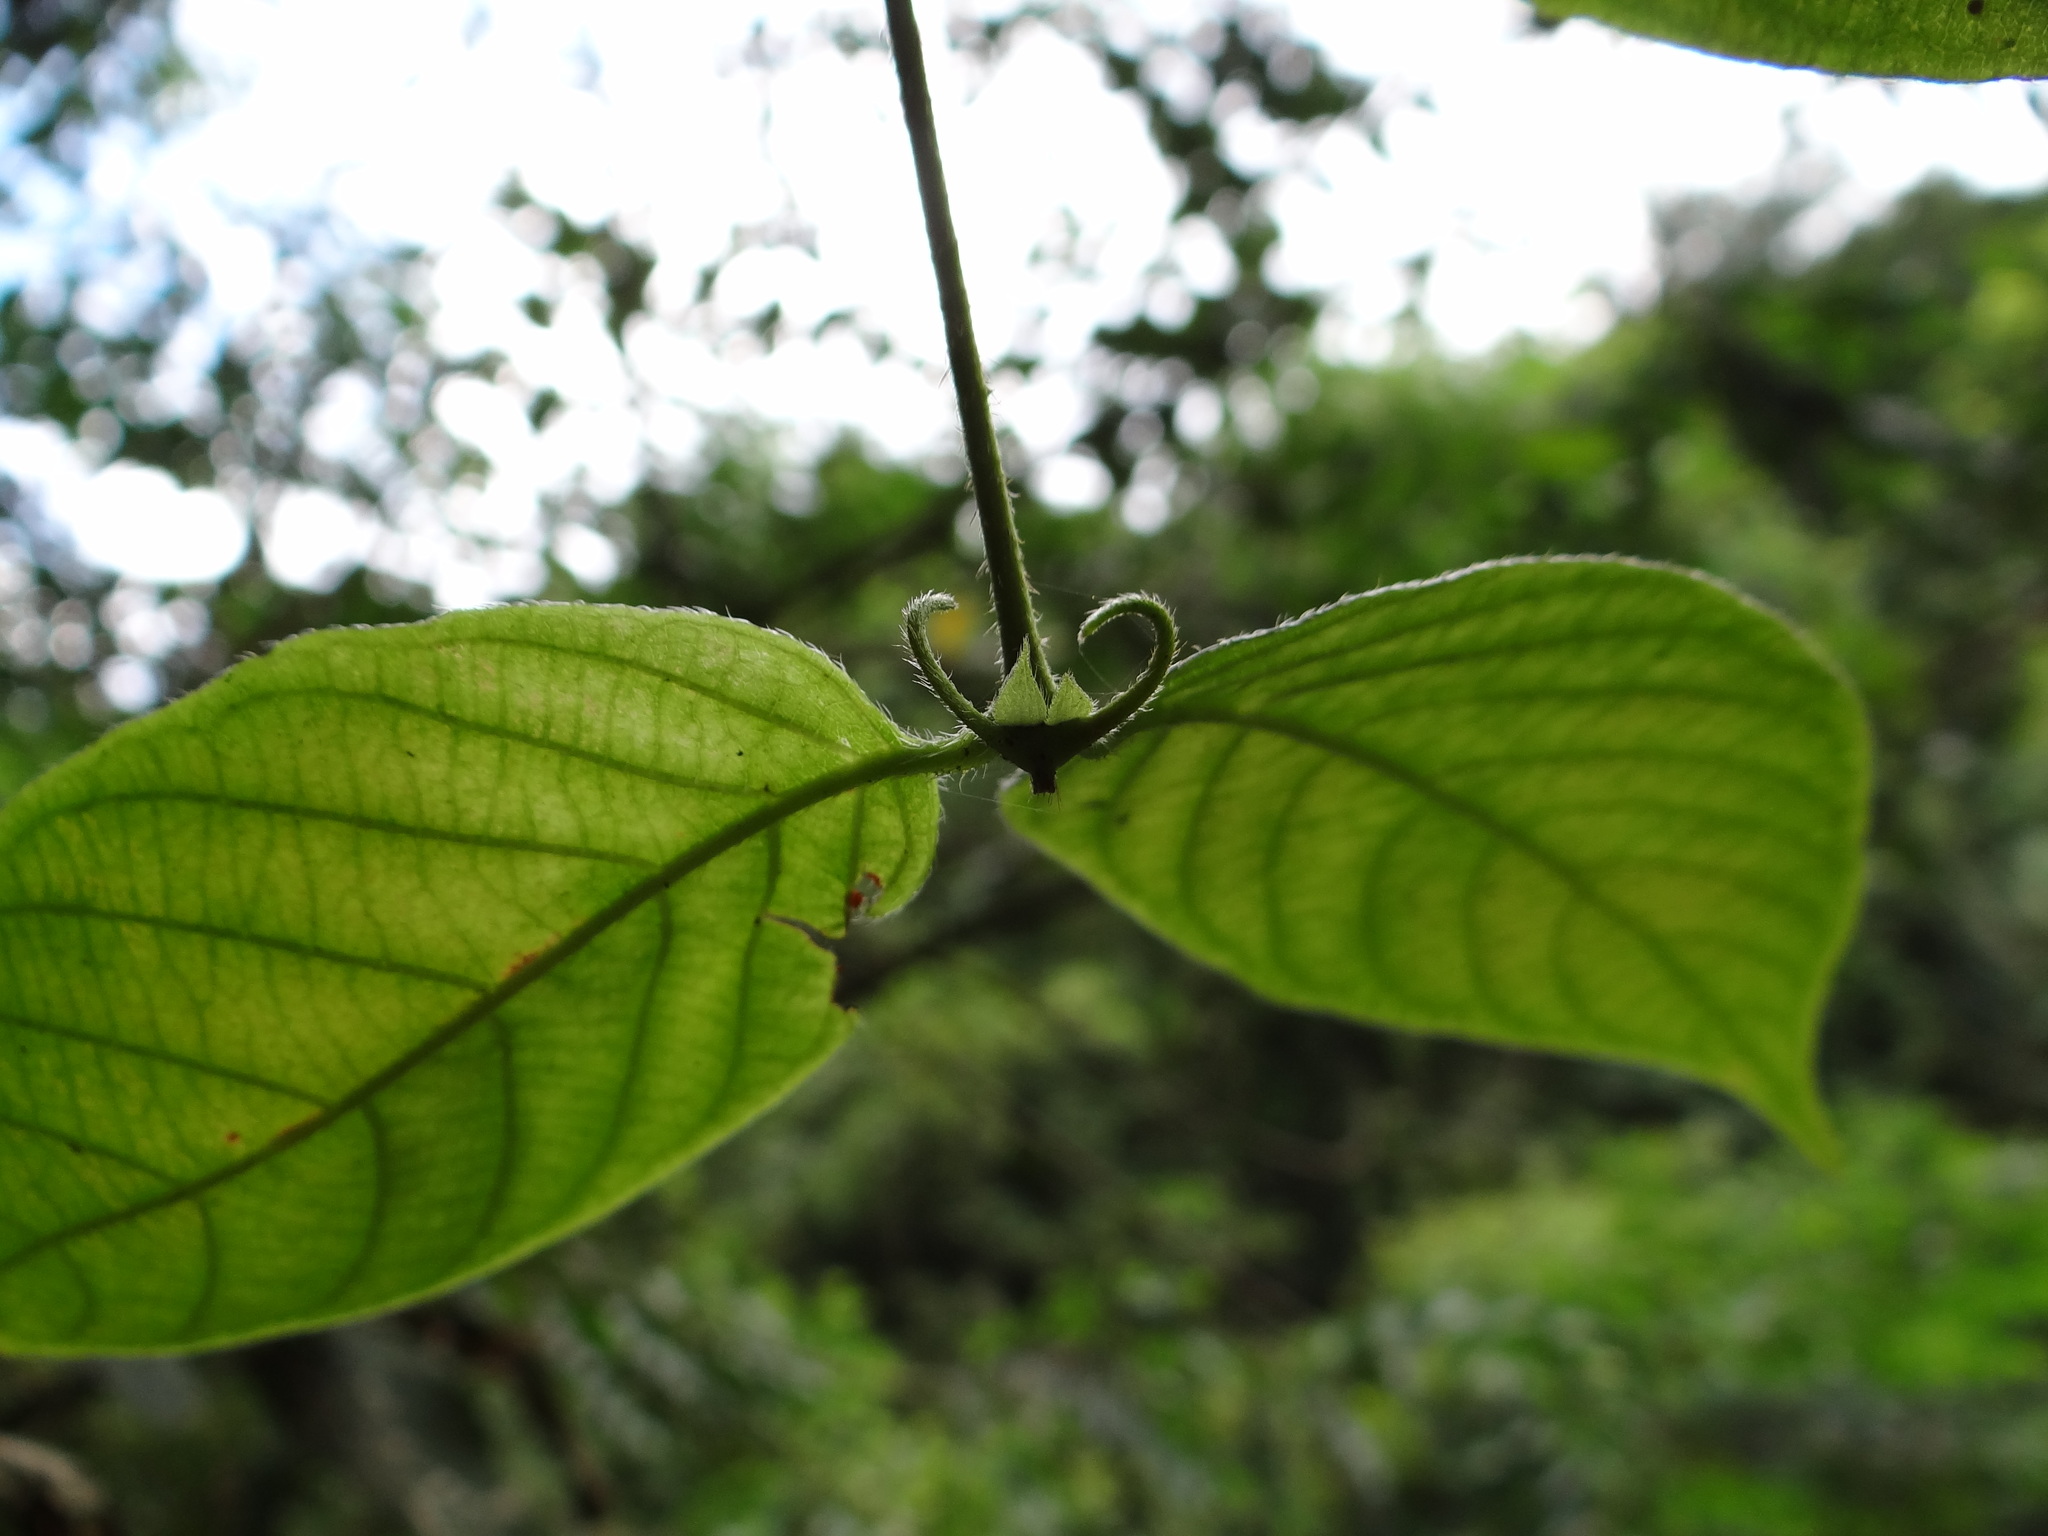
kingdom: Plantae
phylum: Tracheophyta
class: Magnoliopsida
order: Gentianales
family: Rubiaceae
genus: Uncaria
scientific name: Uncaria hirsuta
